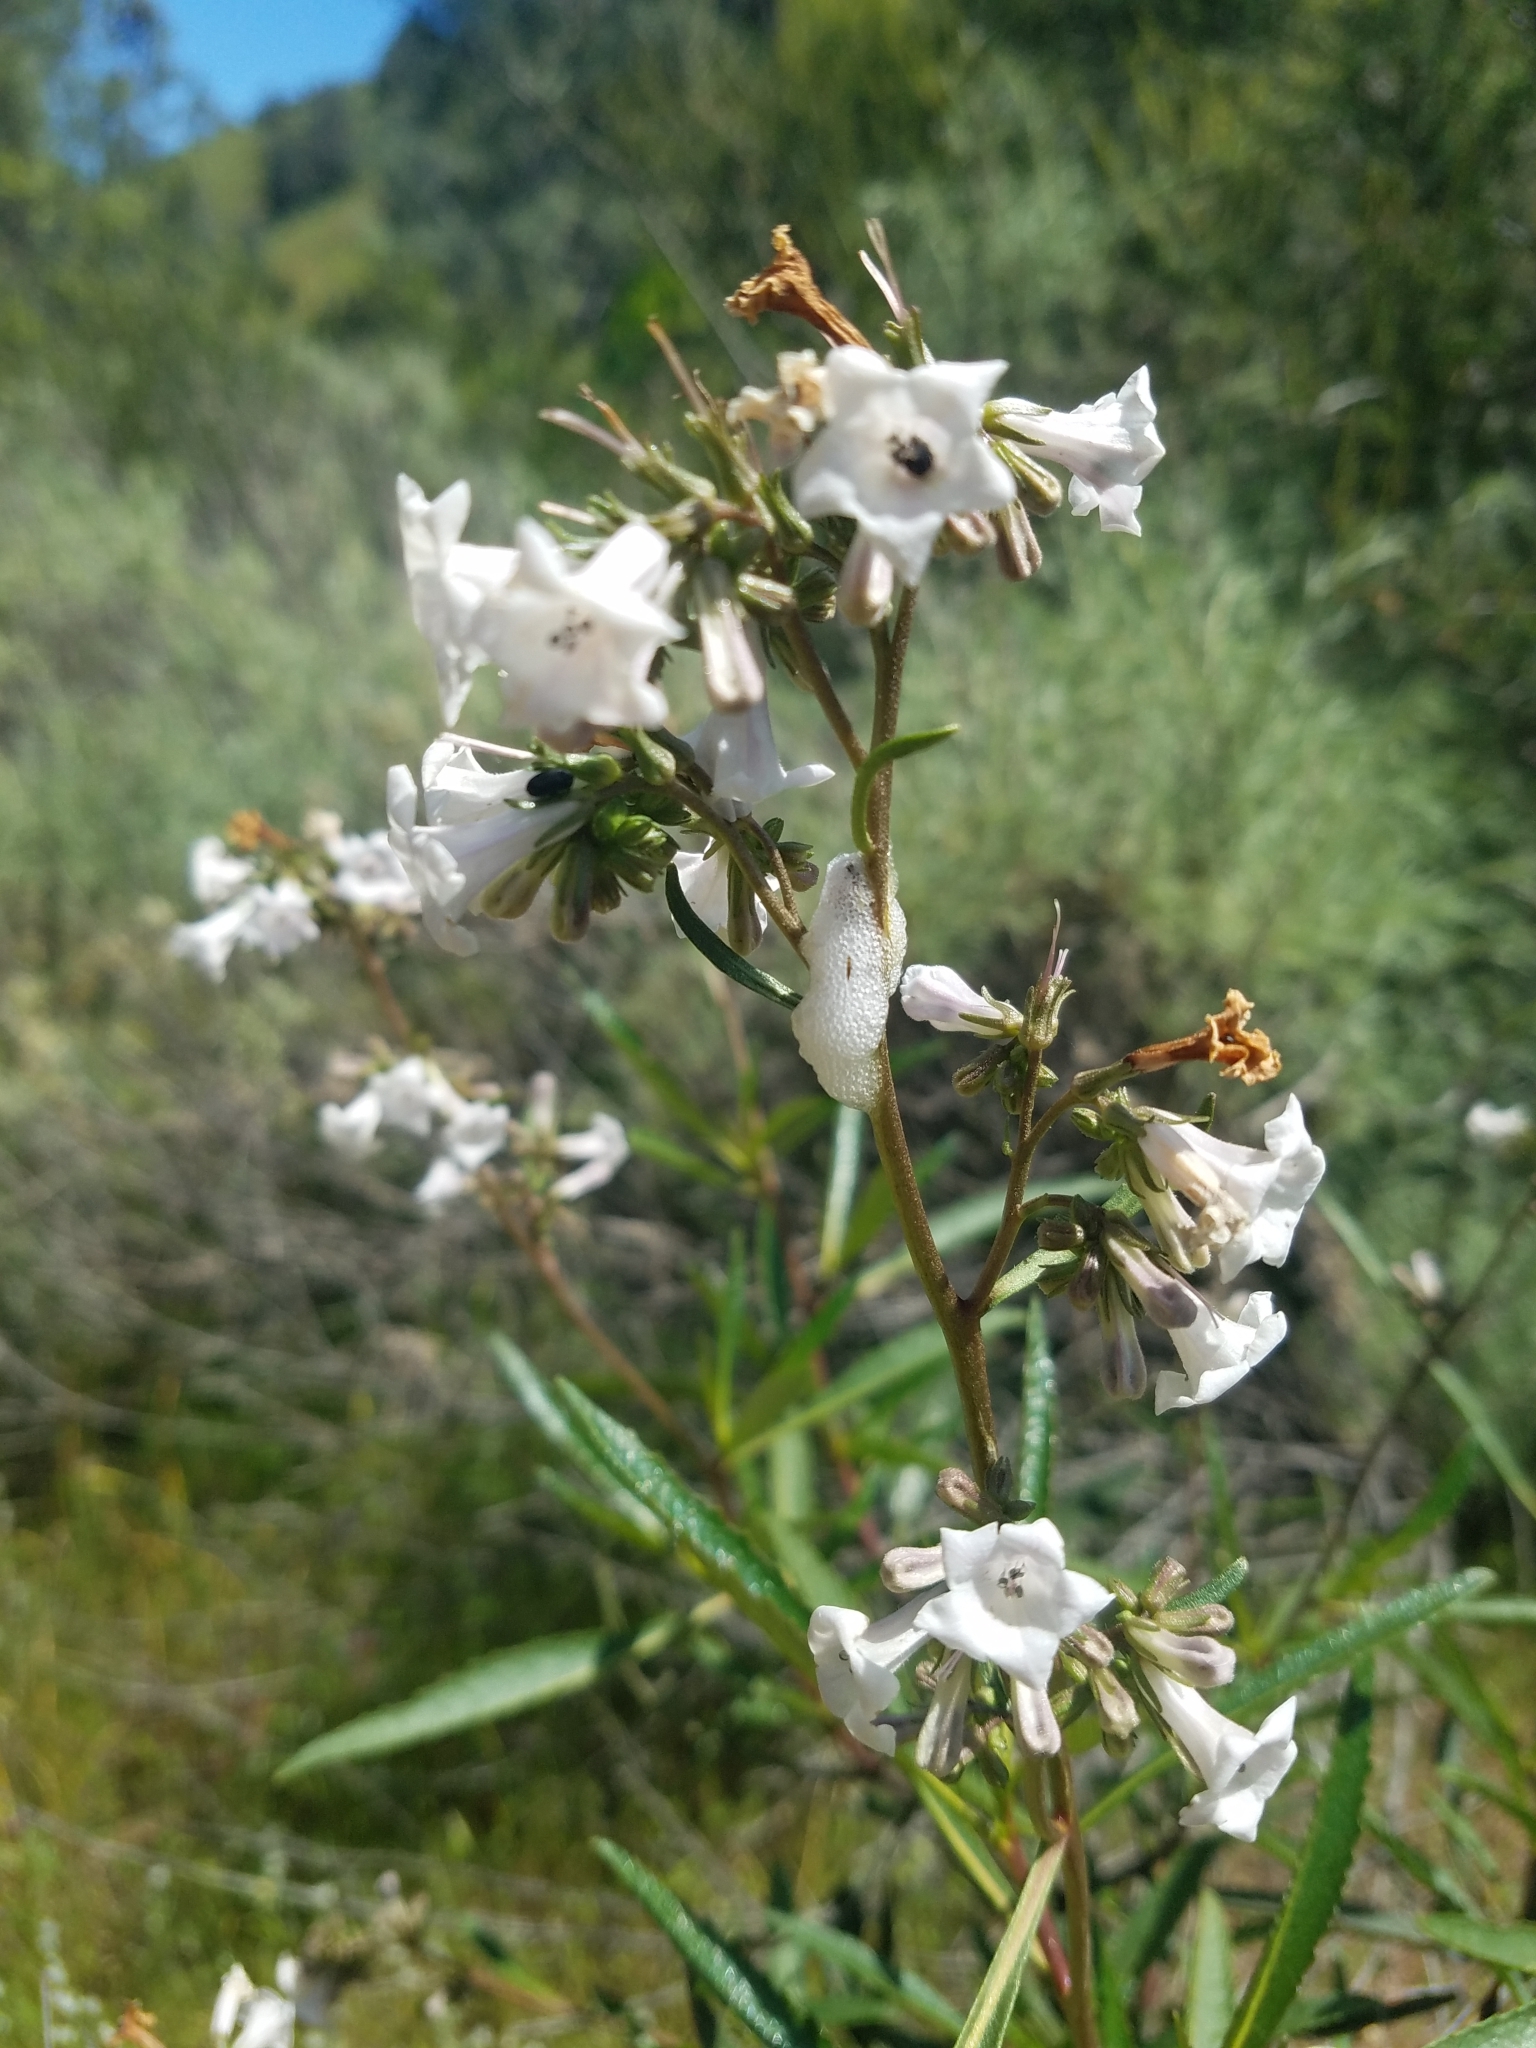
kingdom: Plantae
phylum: Tracheophyta
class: Magnoliopsida
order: Boraginales
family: Namaceae
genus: Eriodictyon
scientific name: Eriodictyon californicum
